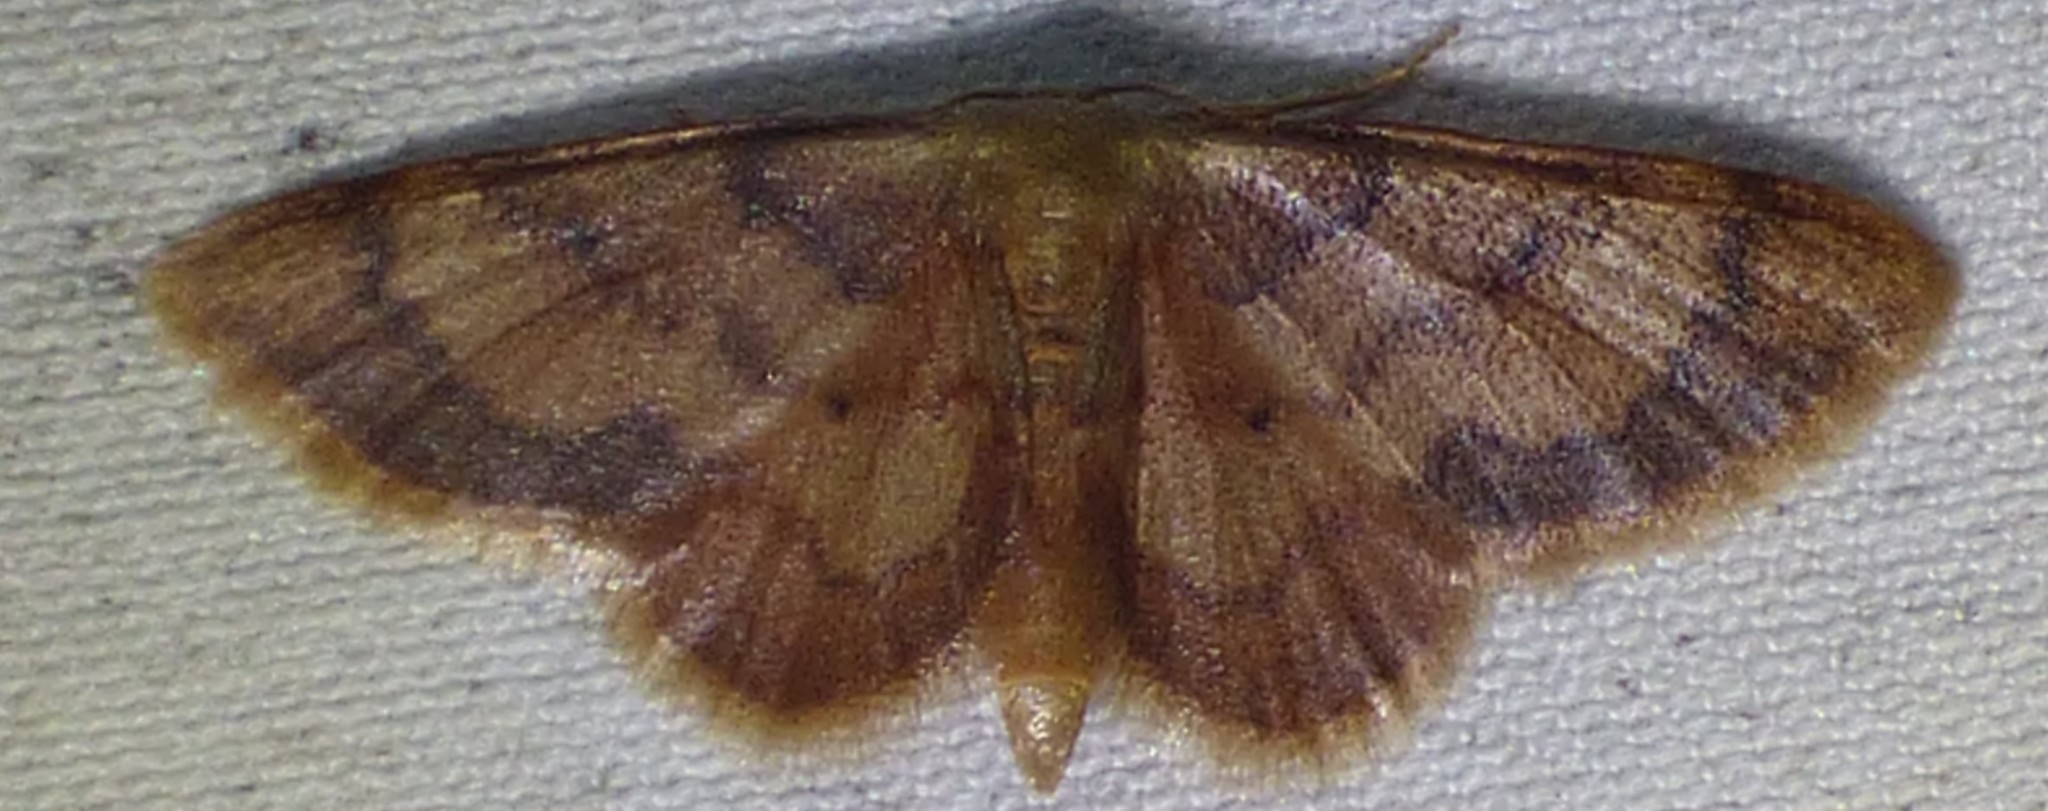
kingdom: Animalia
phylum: Arthropoda
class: Insecta
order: Lepidoptera
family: Geometridae
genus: Idaea
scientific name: Idaea demissaria
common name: Red-bordered wave
